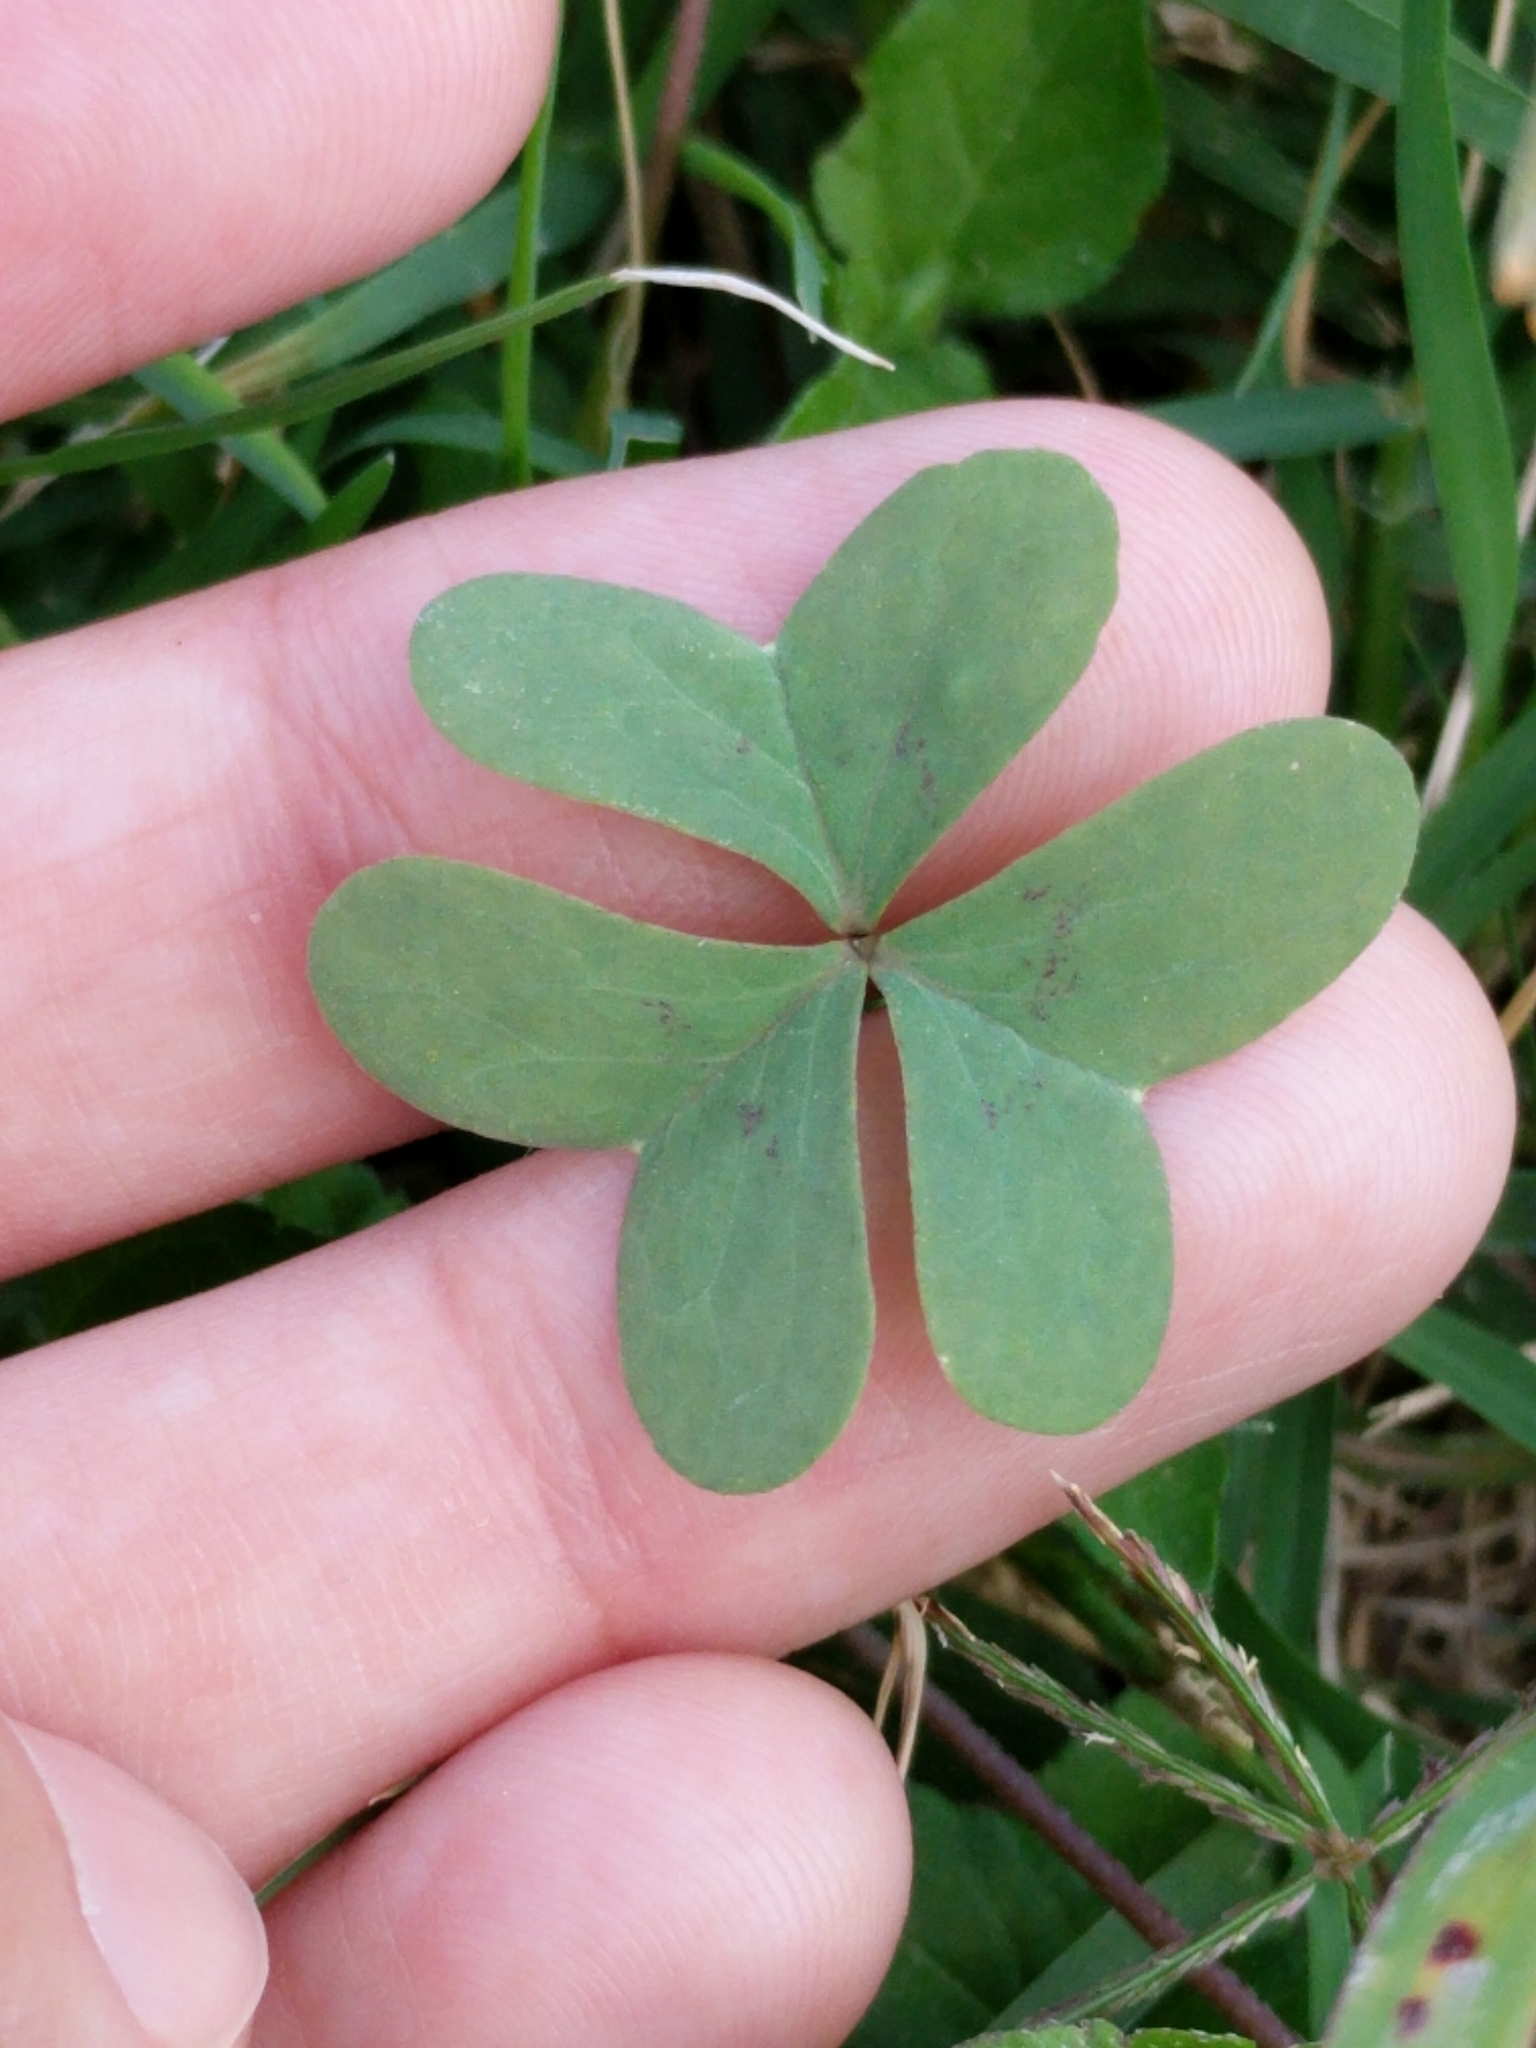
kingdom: Plantae
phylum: Tracheophyta
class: Magnoliopsida
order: Oxalidales
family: Oxalidaceae
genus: Oxalis
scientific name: Oxalis drummondii
